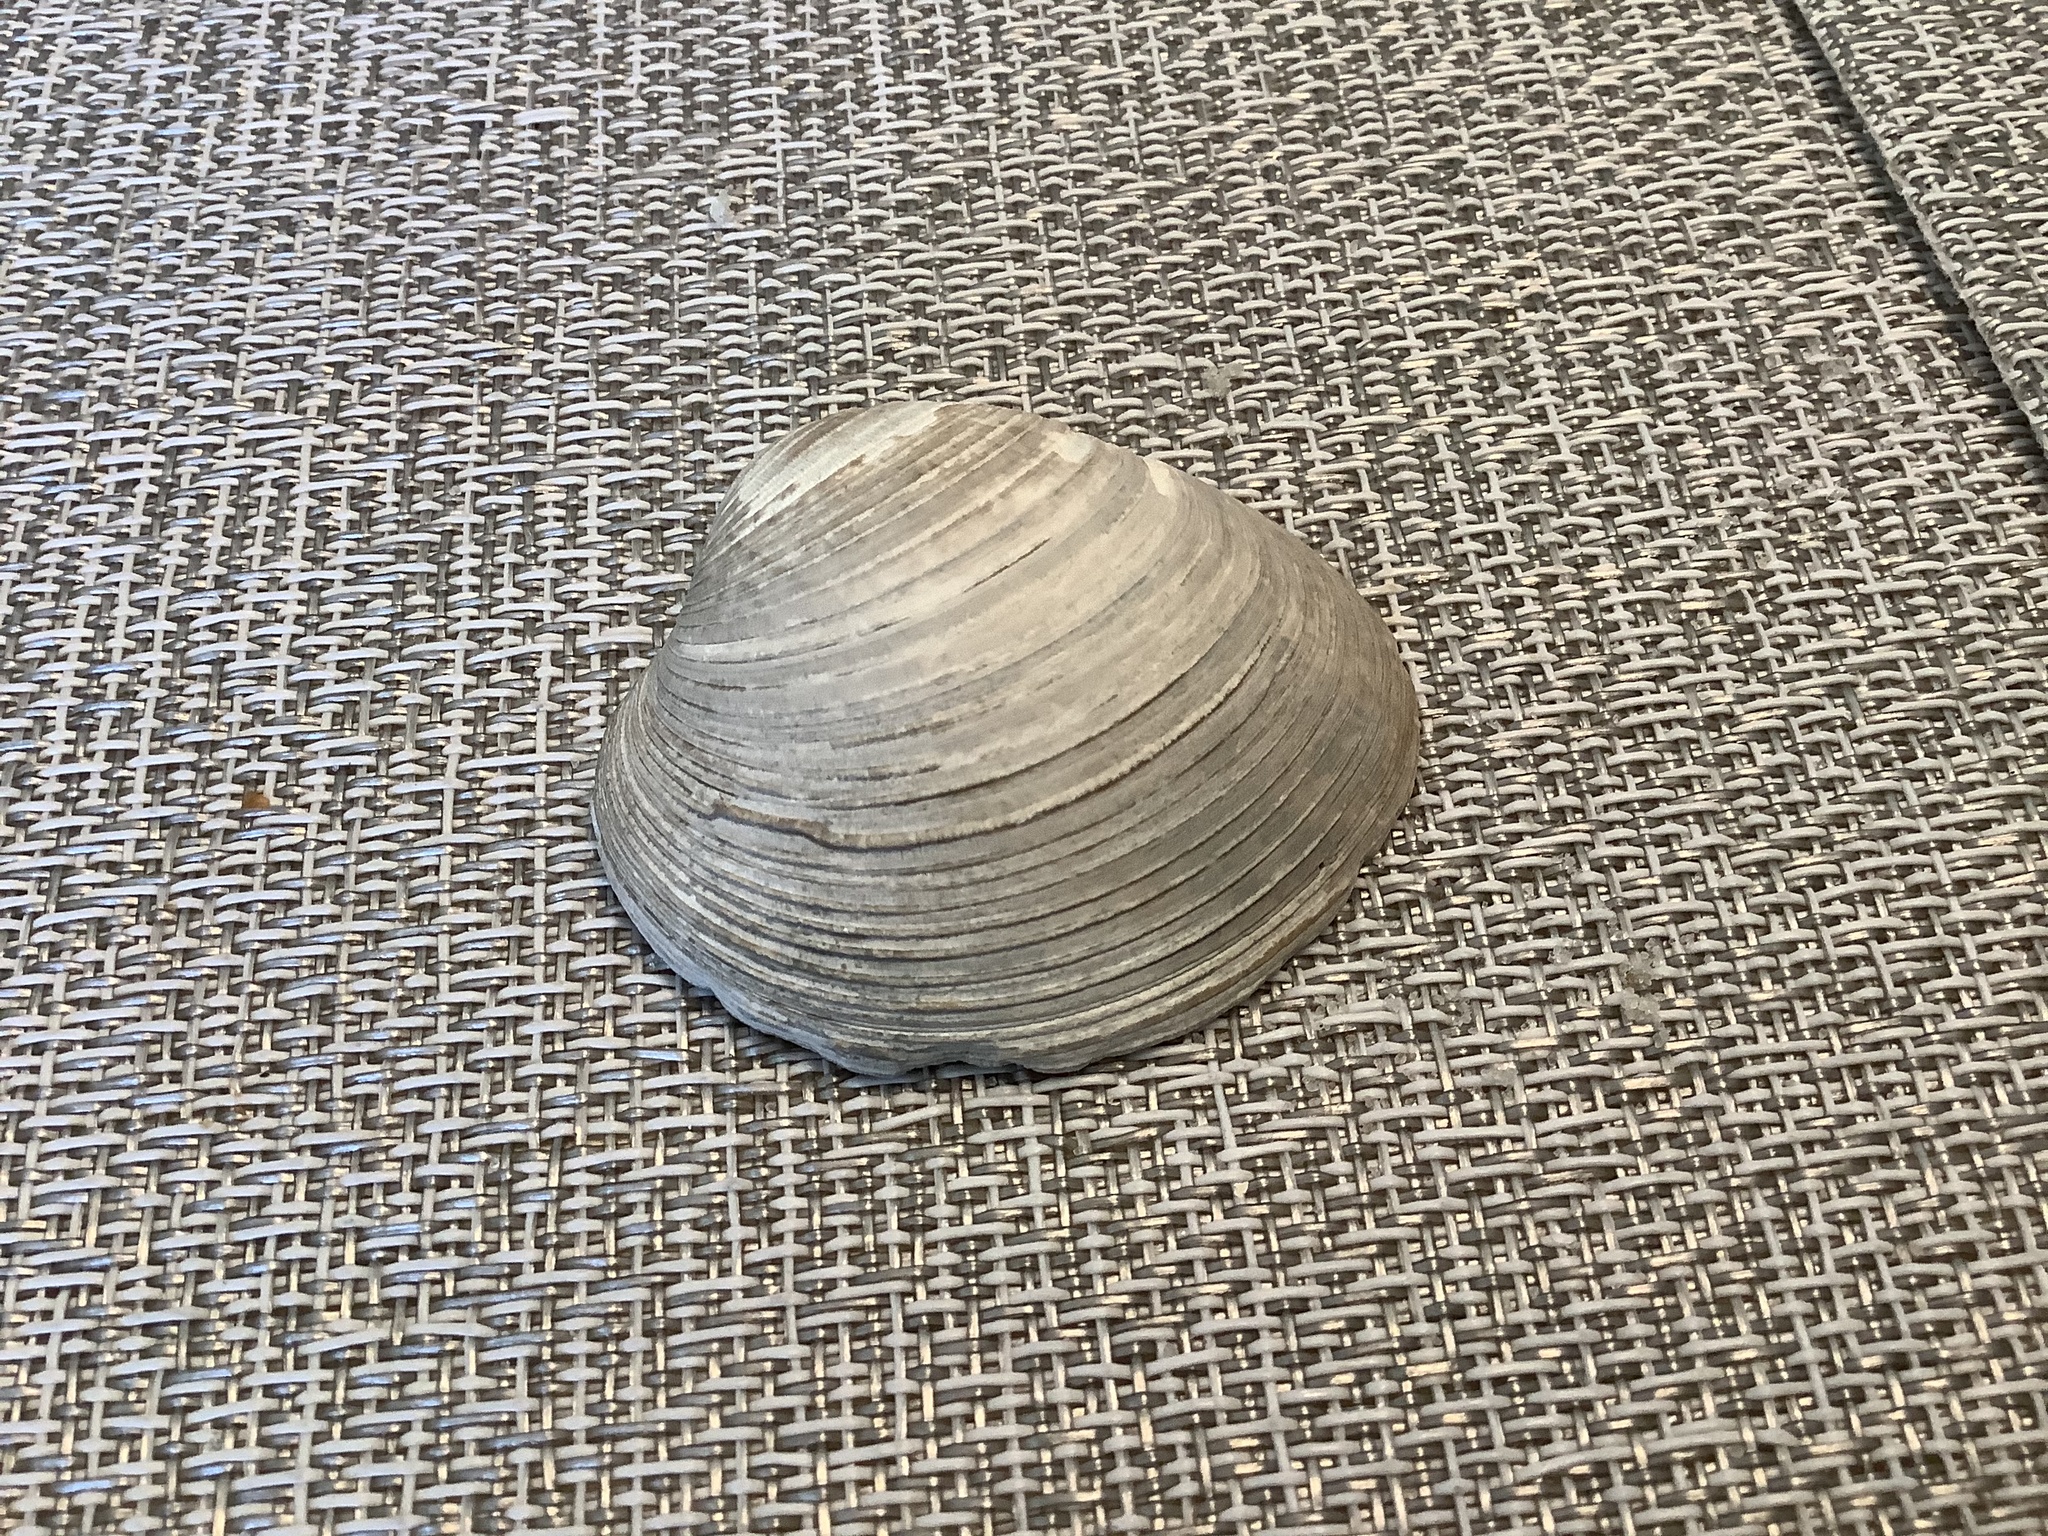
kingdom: Animalia
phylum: Mollusca
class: Bivalvia
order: Venerida
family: Veneridae
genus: Mercenaria
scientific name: Mercenaria campechiensis
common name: Südliche quahog-muschel
